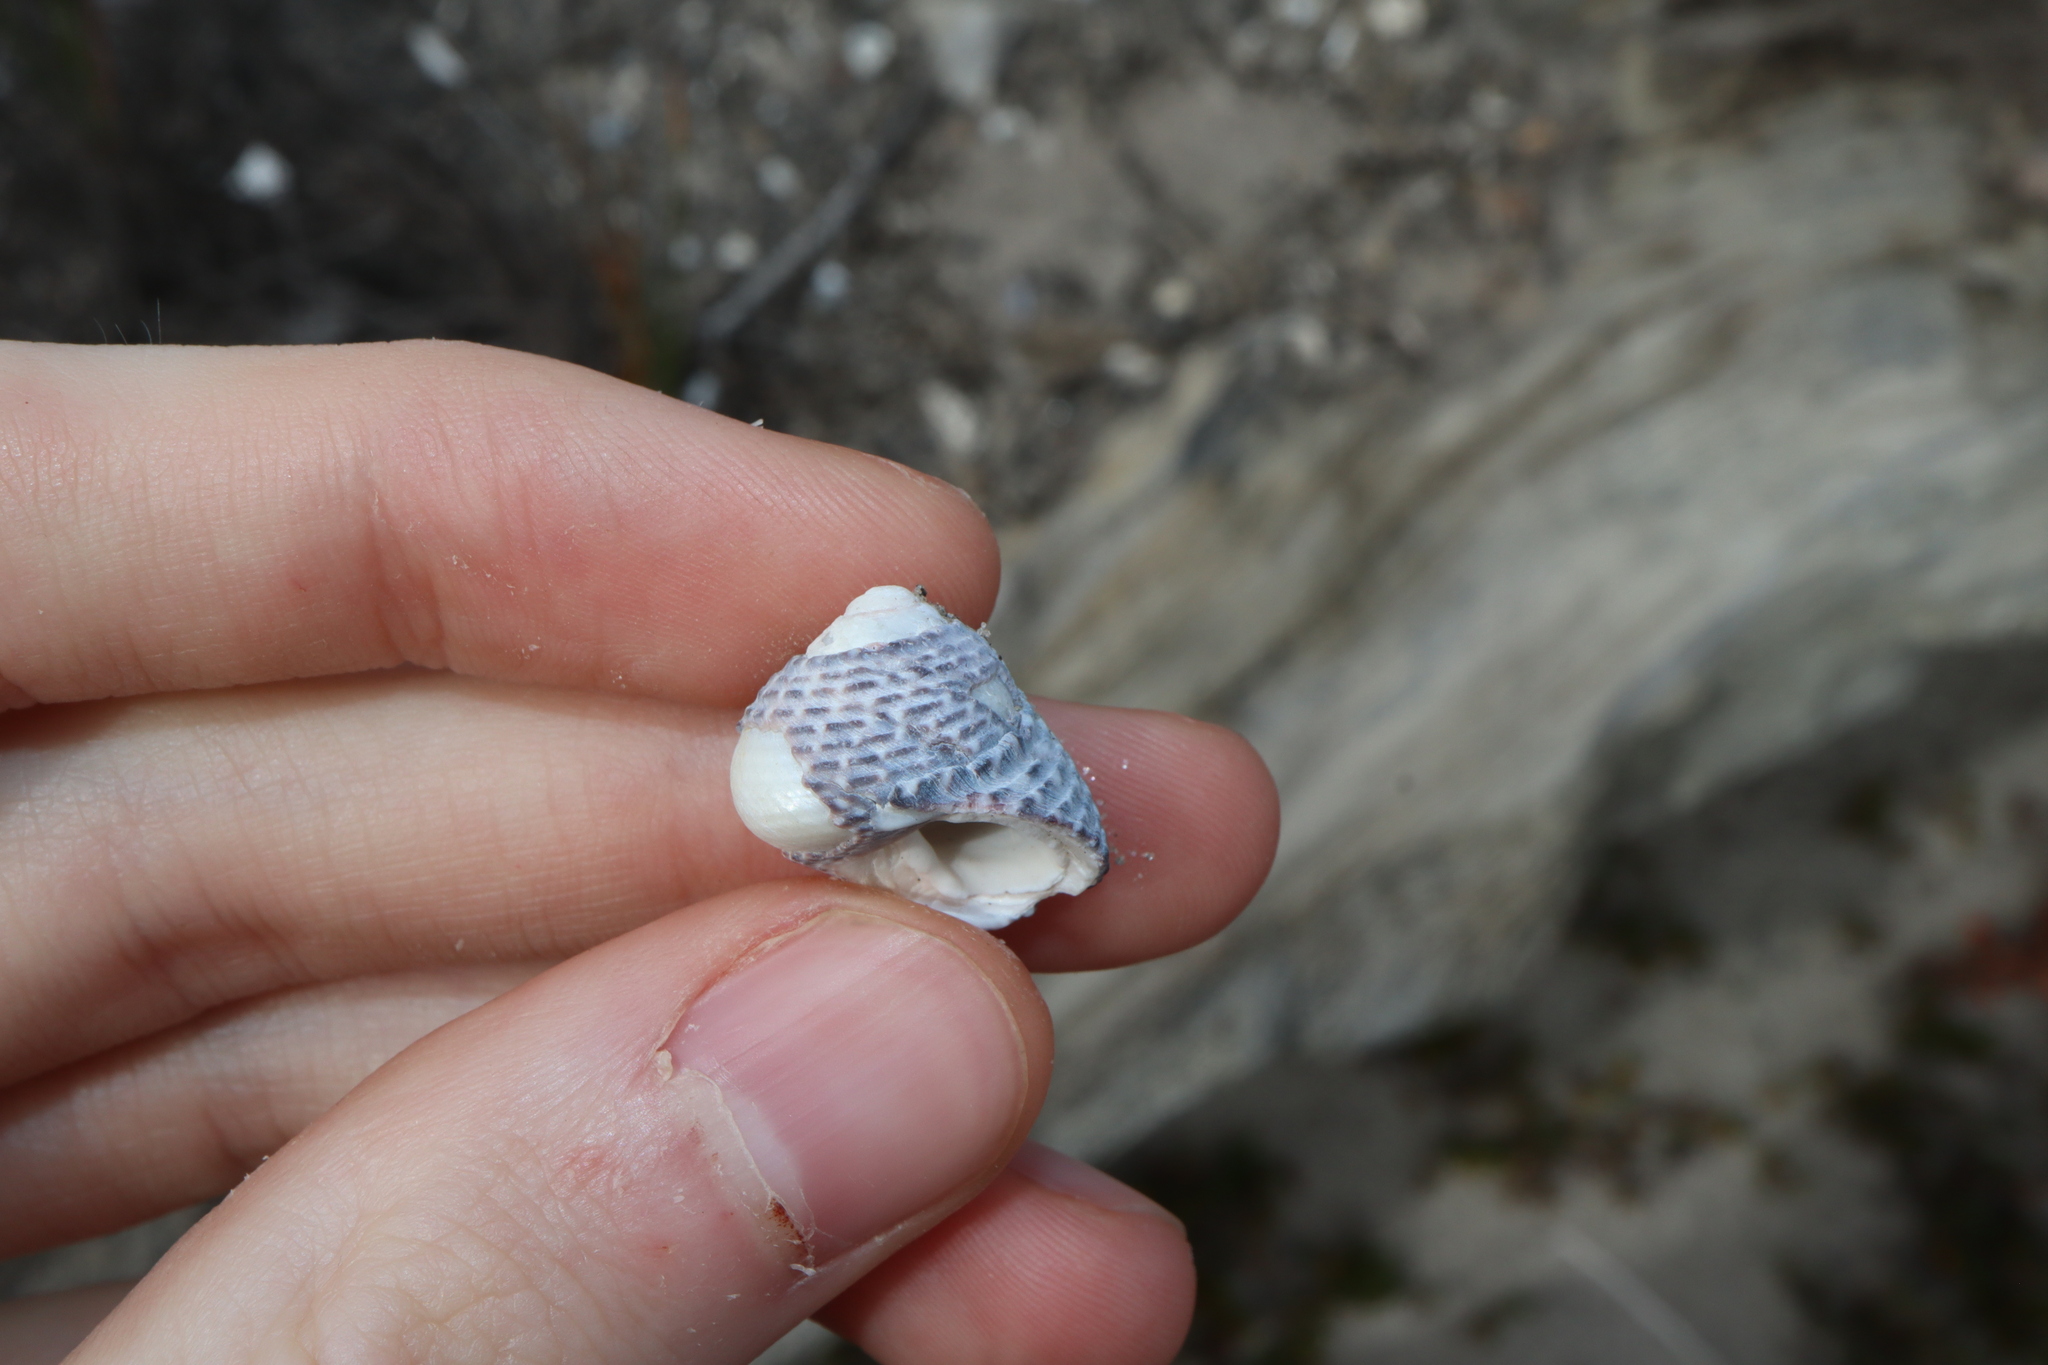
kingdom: Animalia
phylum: Mollusca
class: Gastropoda
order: Trochida
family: Trochidae
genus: Diloma
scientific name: Diloma concameratum
